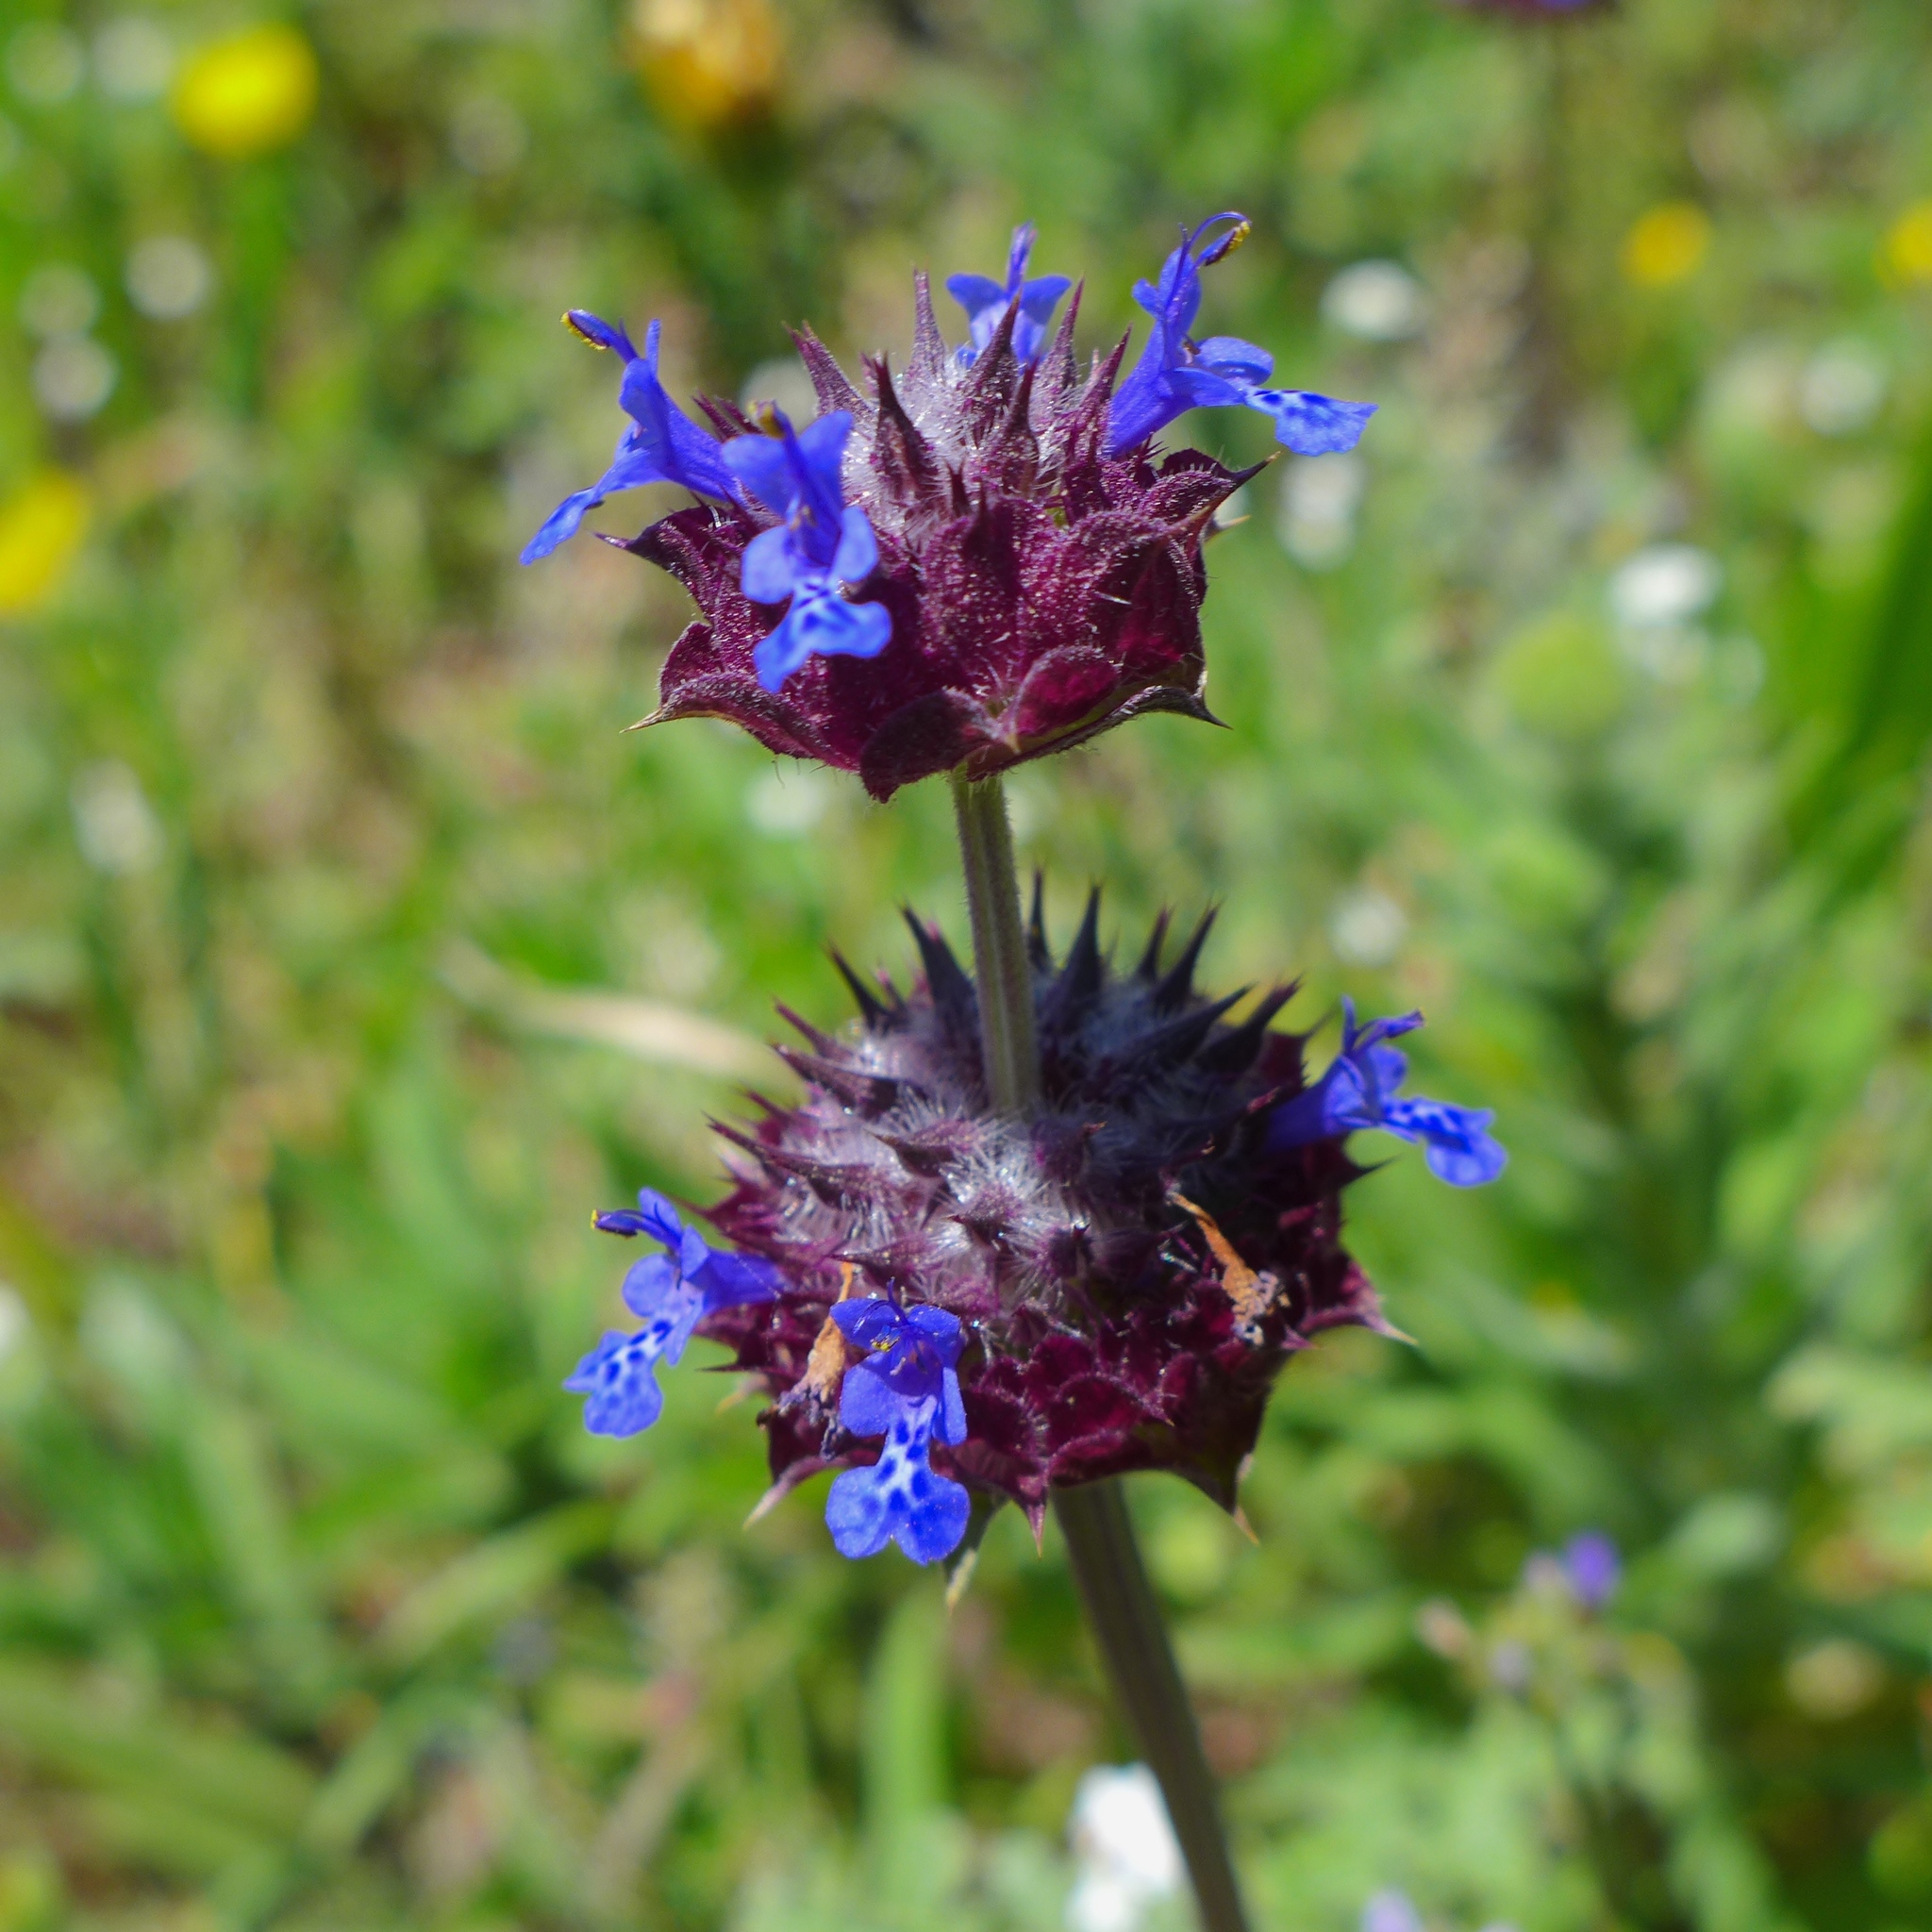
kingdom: Plantae
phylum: Tracheophyta
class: Magnoliopsida
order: Lamiales
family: Lamiaceae
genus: Salvia
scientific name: Salvia columbariae
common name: Chia
